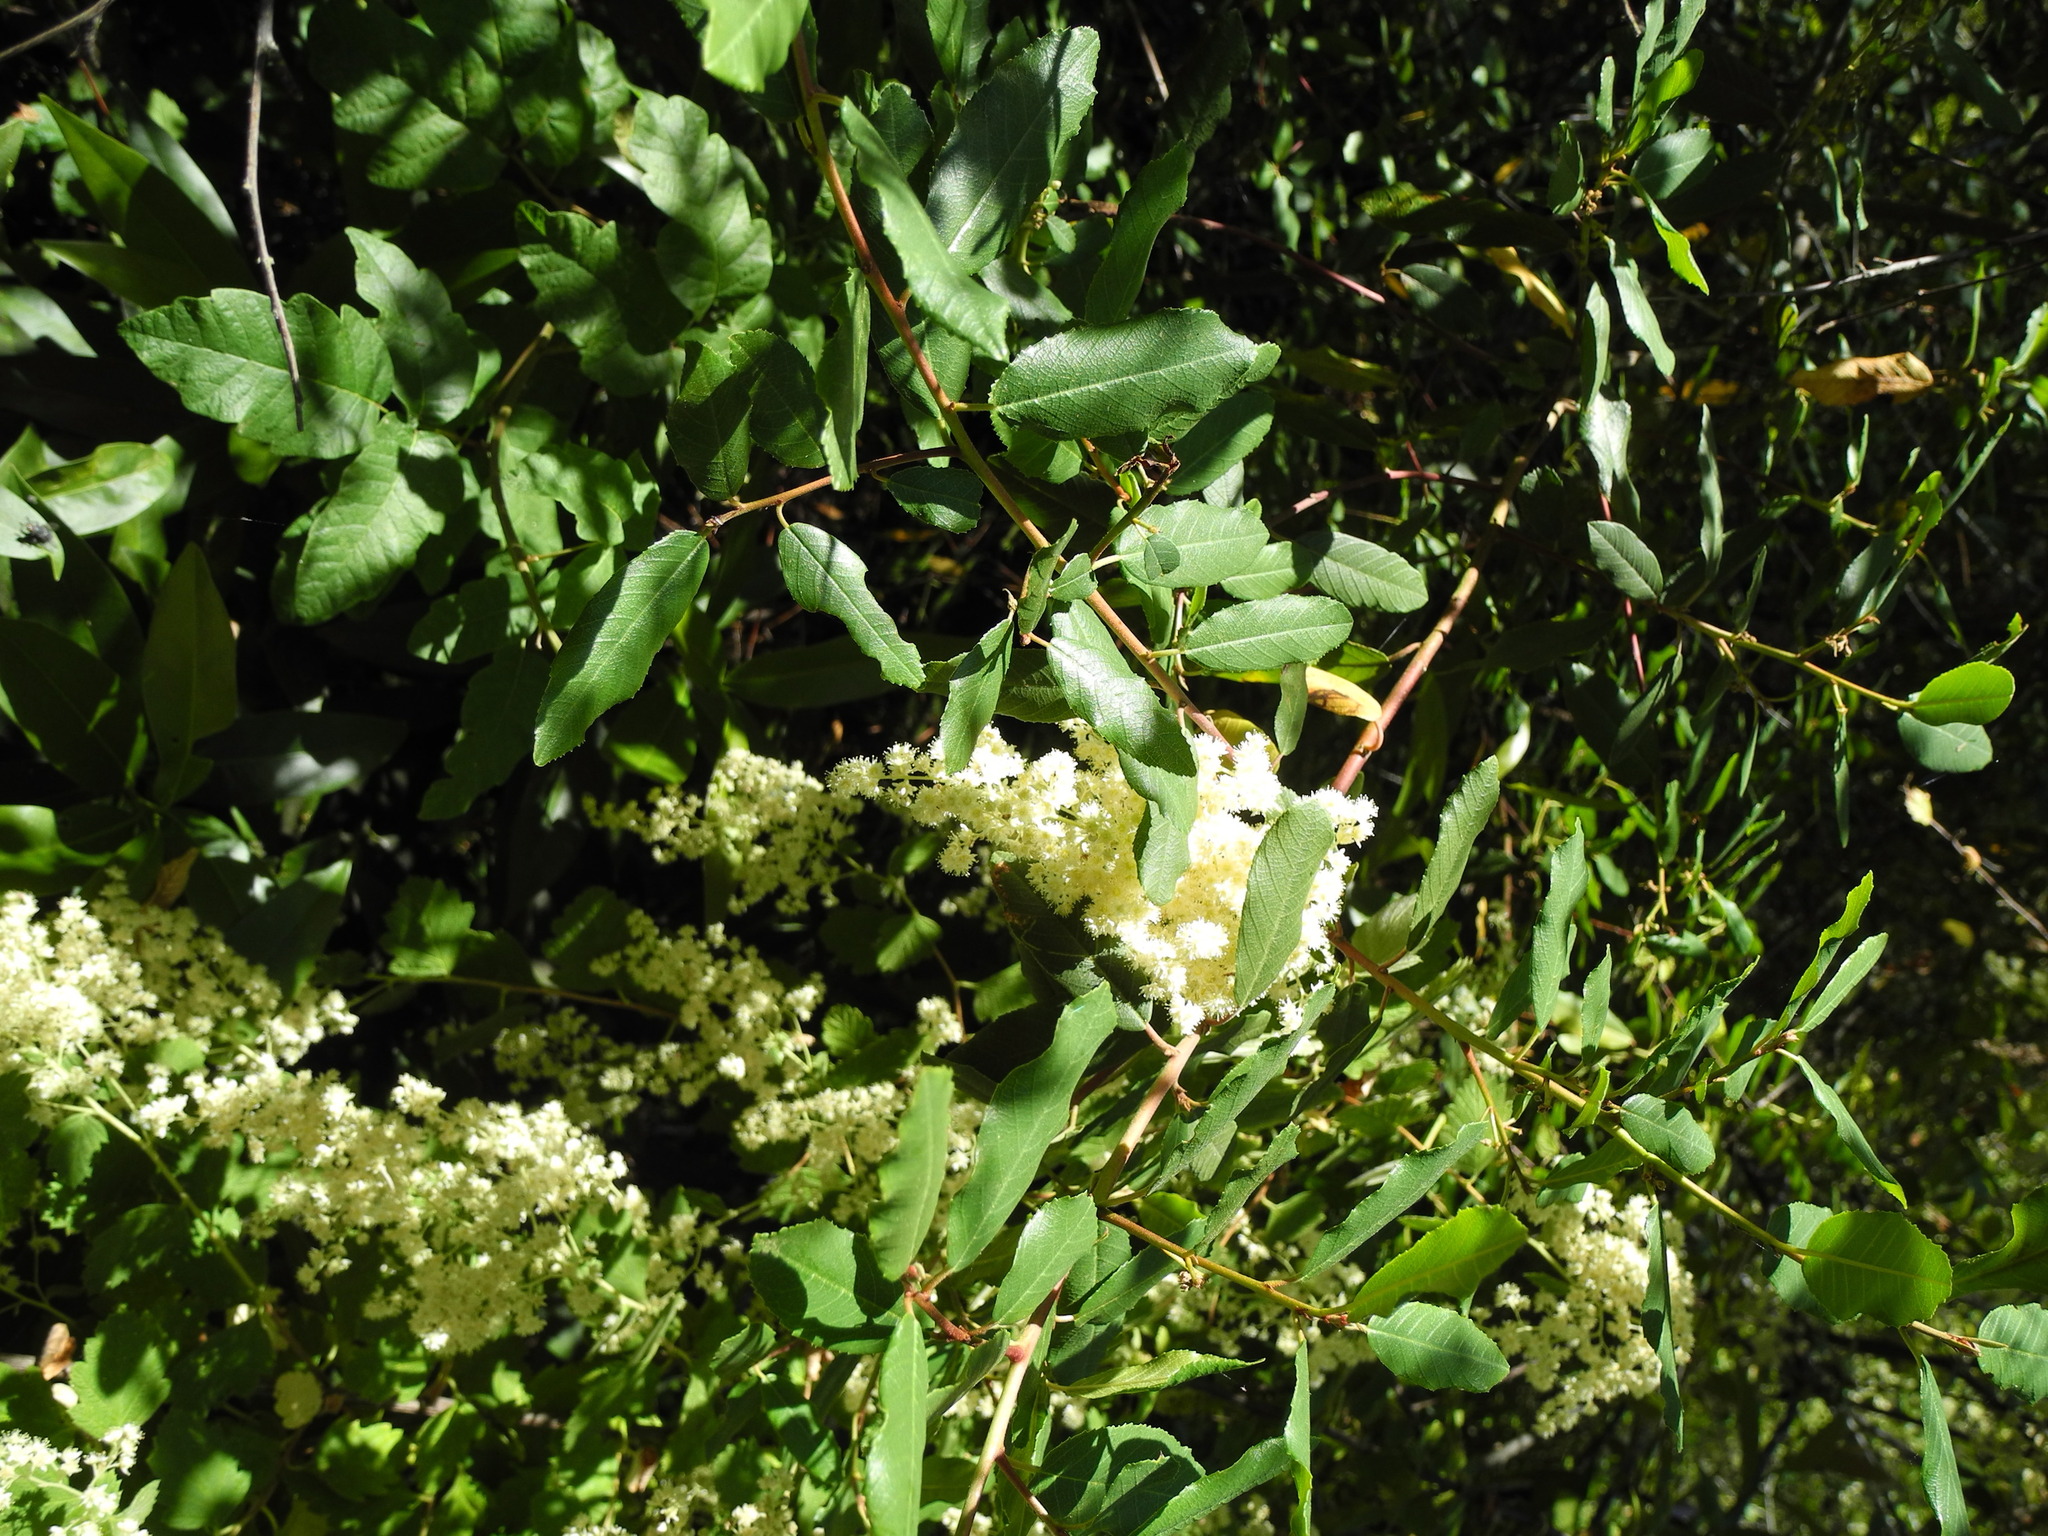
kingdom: Plantae
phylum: Tracheophyta
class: Magnoliopsida
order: Rosales
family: Rosaceae
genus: Holodiscus
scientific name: Holodiscus discolor
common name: Oceanspray
